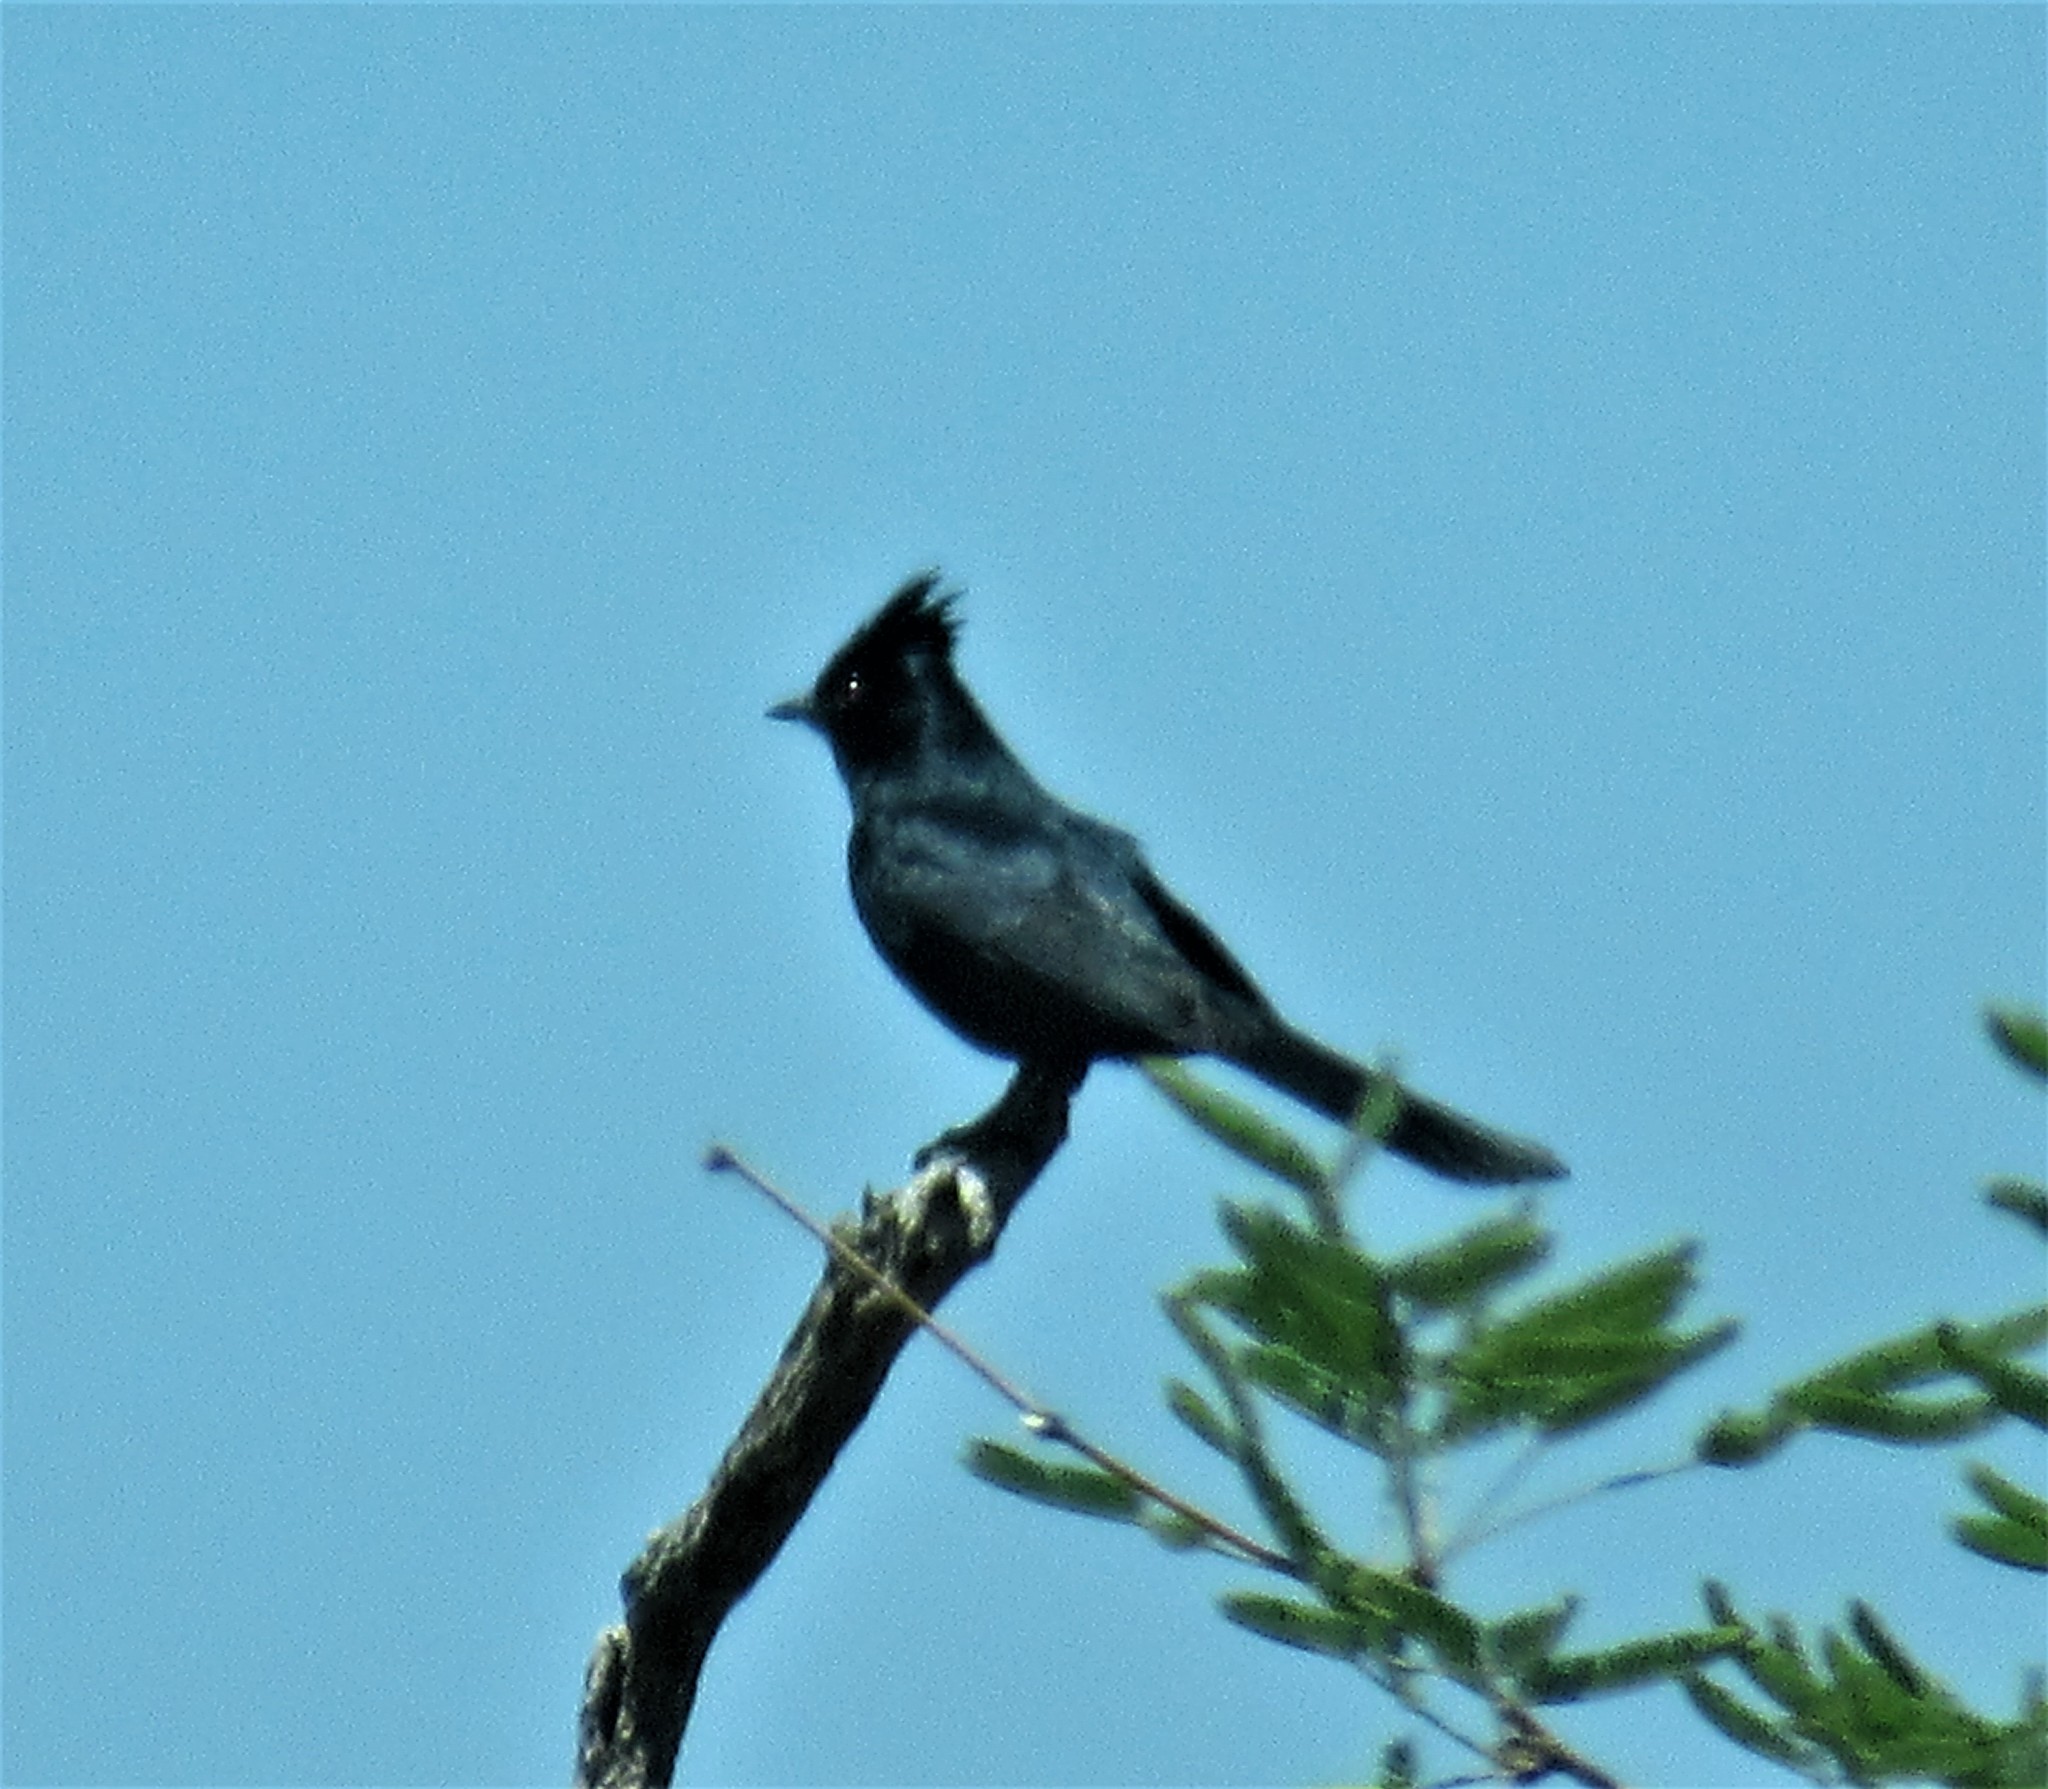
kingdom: Animalia
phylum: Chordata
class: Aves
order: Passeriformes
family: Ptilogonatidae
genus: Phainopepla
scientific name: Phainopepla nitens
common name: Phainopepla
